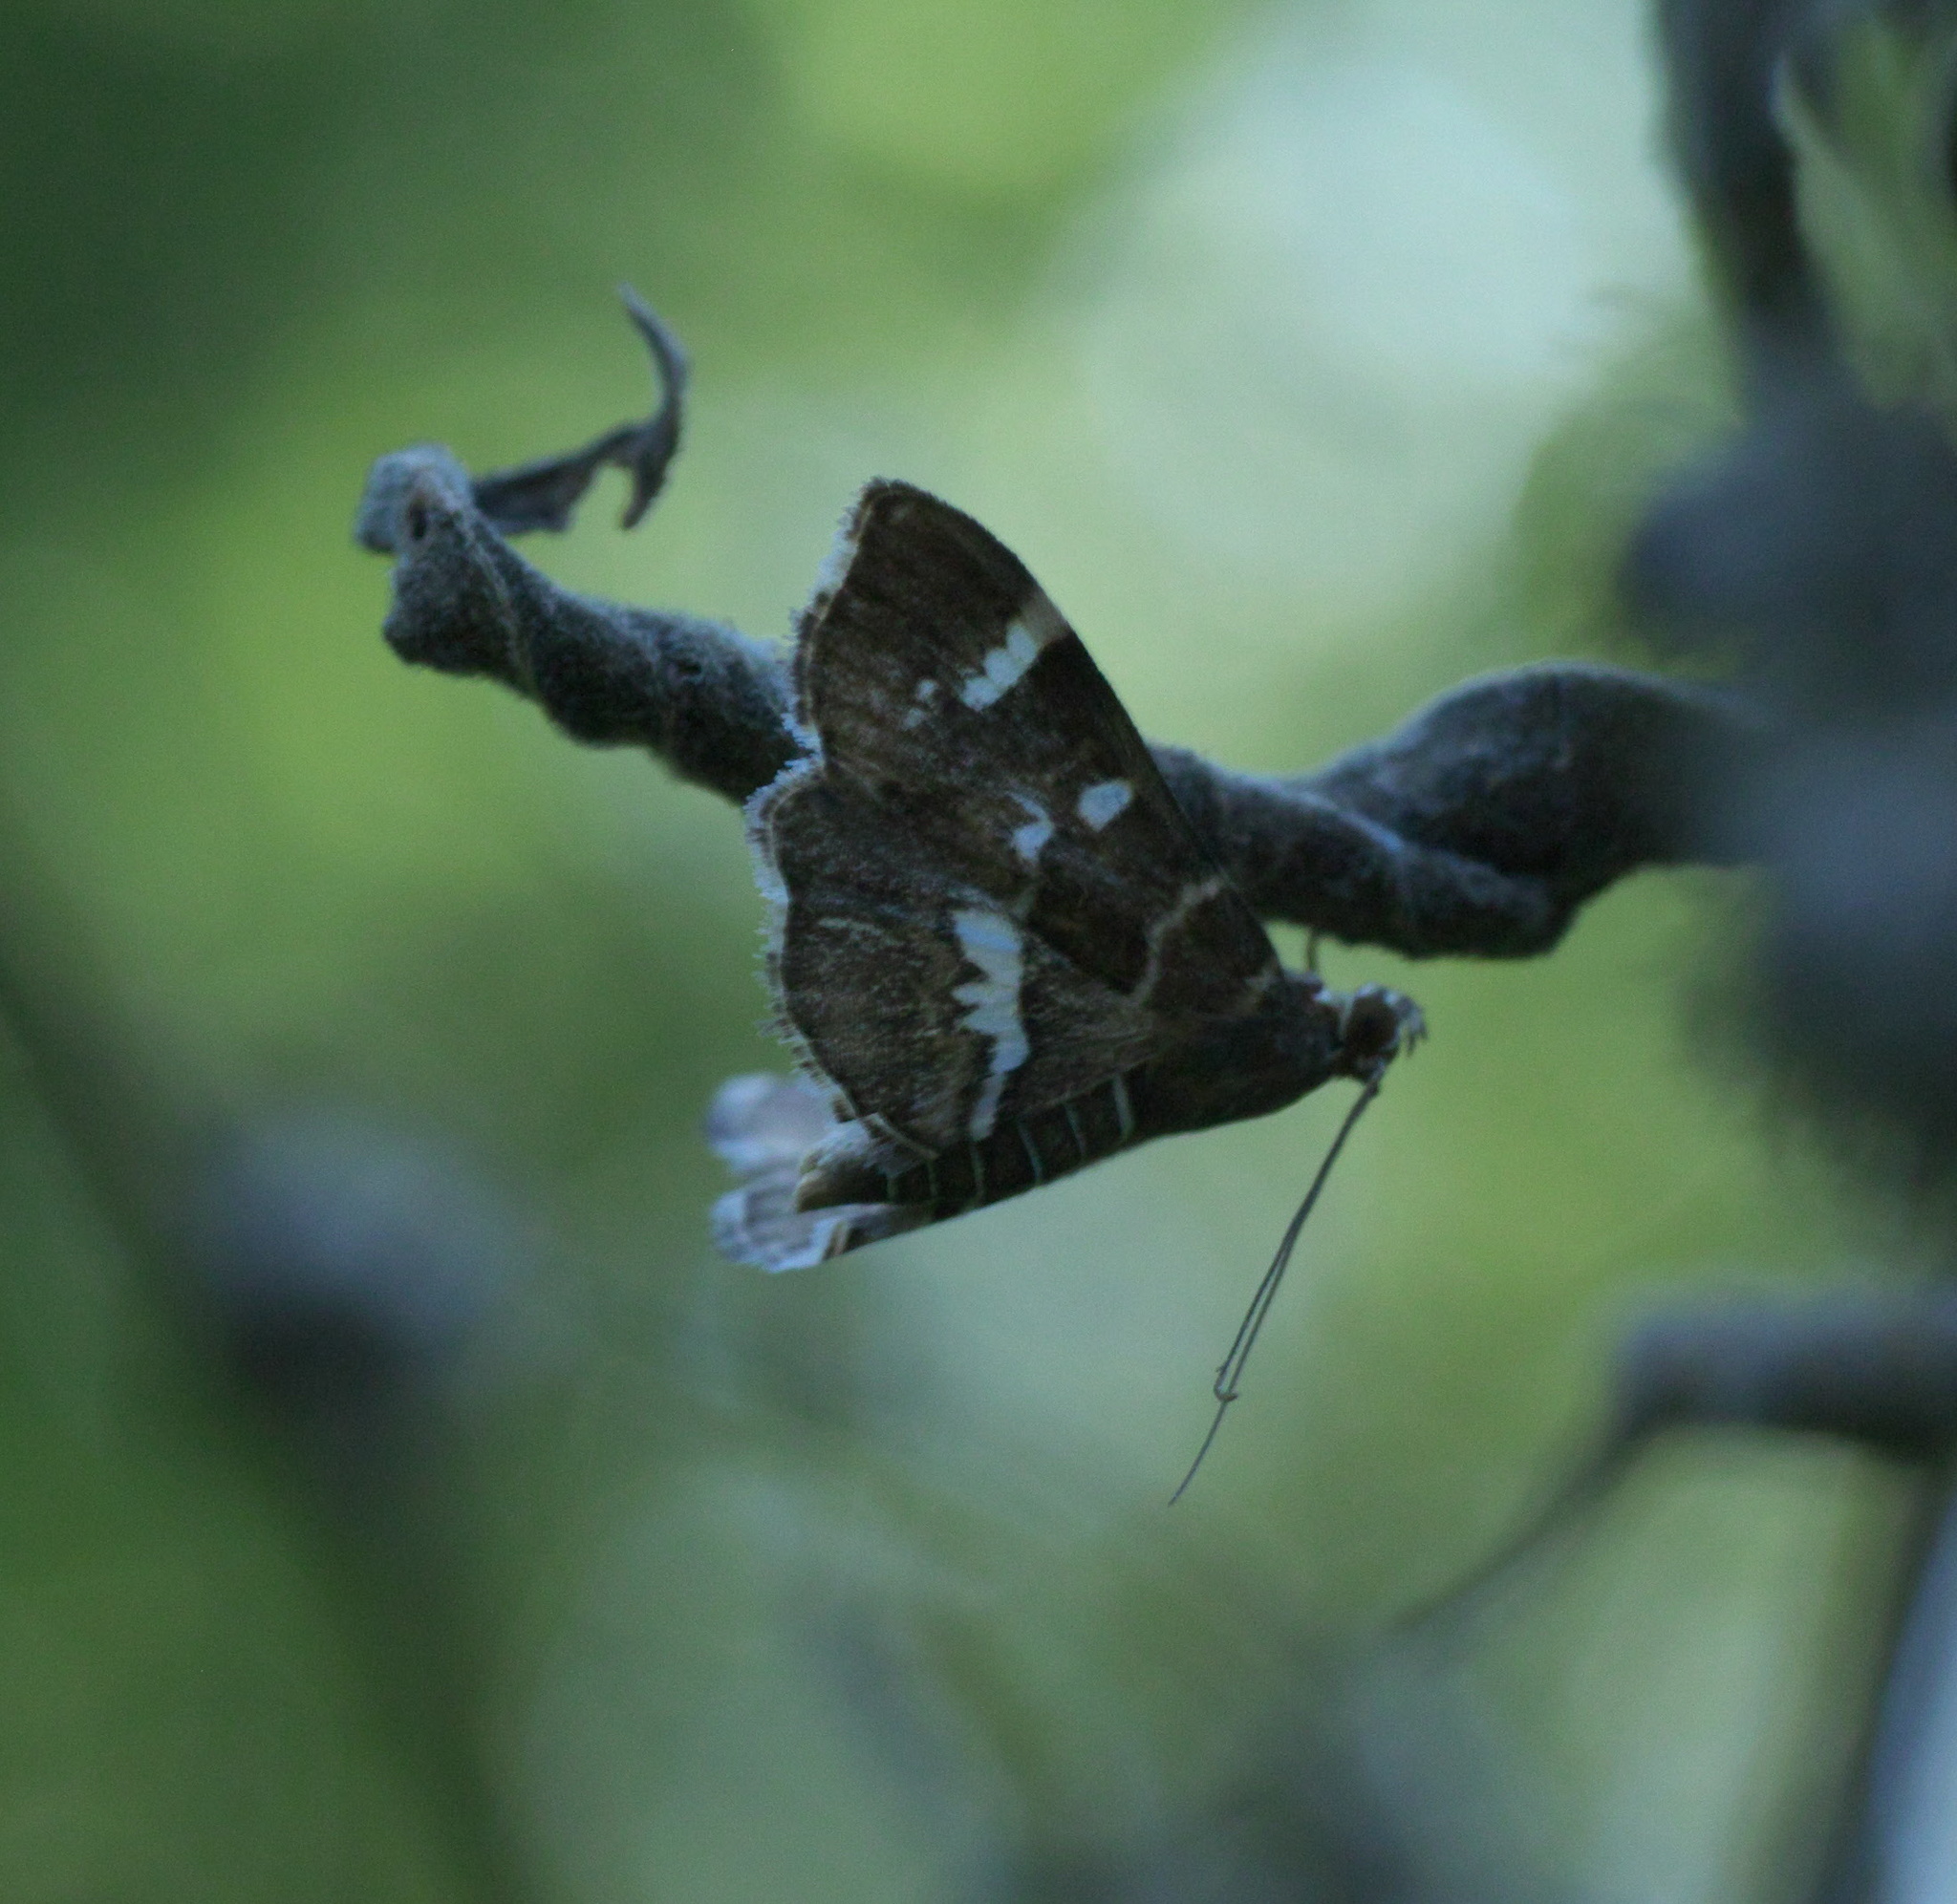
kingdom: Animalia
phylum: Arthropoda
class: Insecta
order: Lepidoptera
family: Crambidae
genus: Hymenia
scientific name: Hymenia perspectalis
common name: Spotted beet webworm
